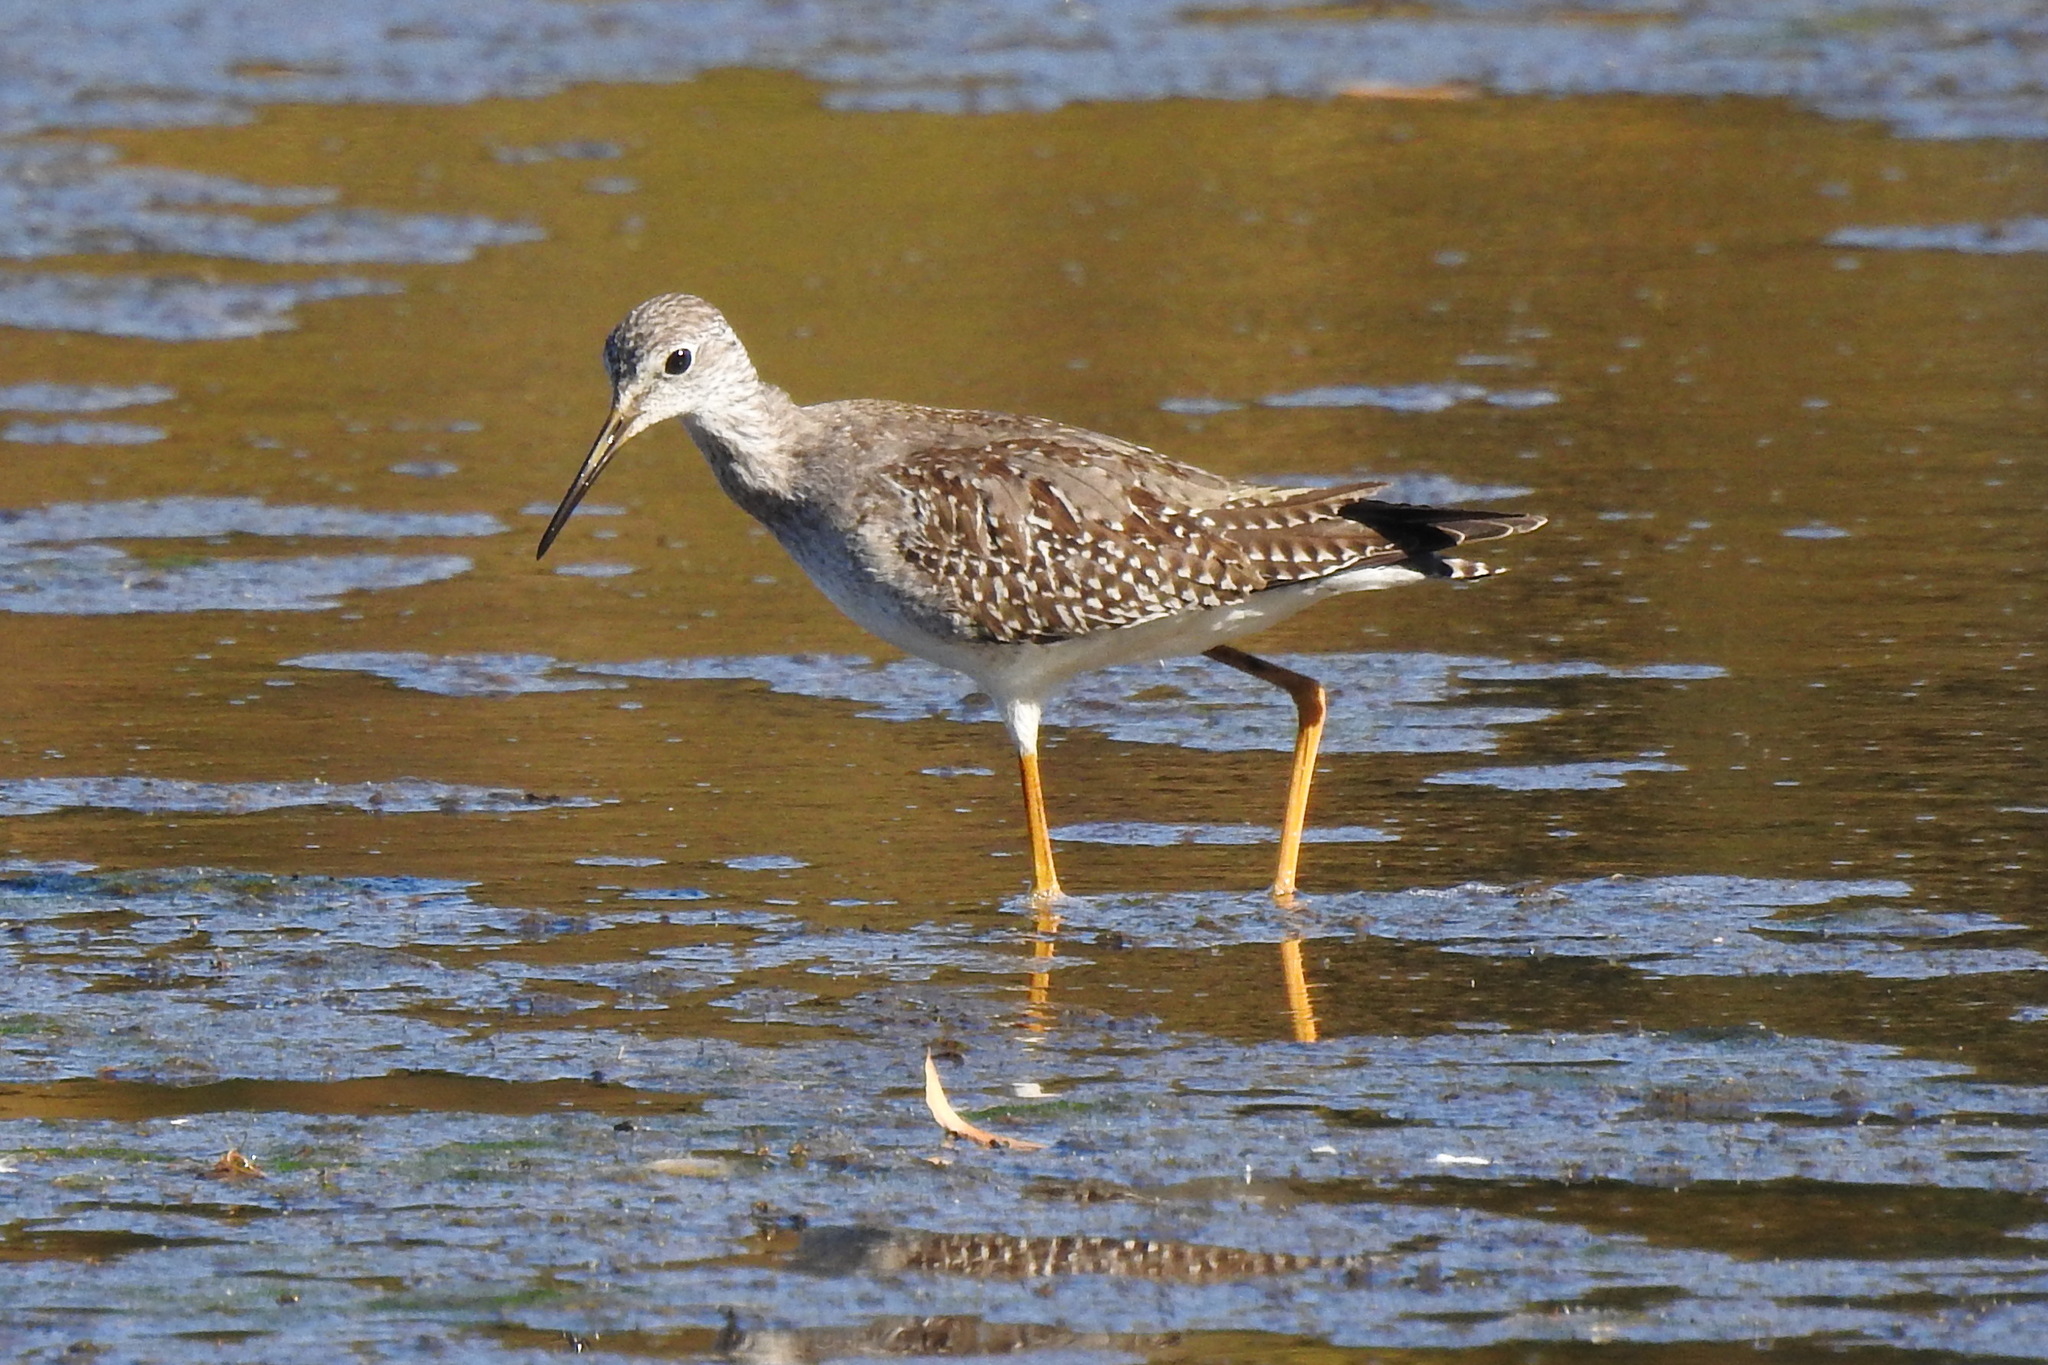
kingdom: Animalia
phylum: Chordata
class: Aves
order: Charadriiformes
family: Scolopacidae
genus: Tringa
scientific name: Tringa melanoleuca
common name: Greater yellowlegs
